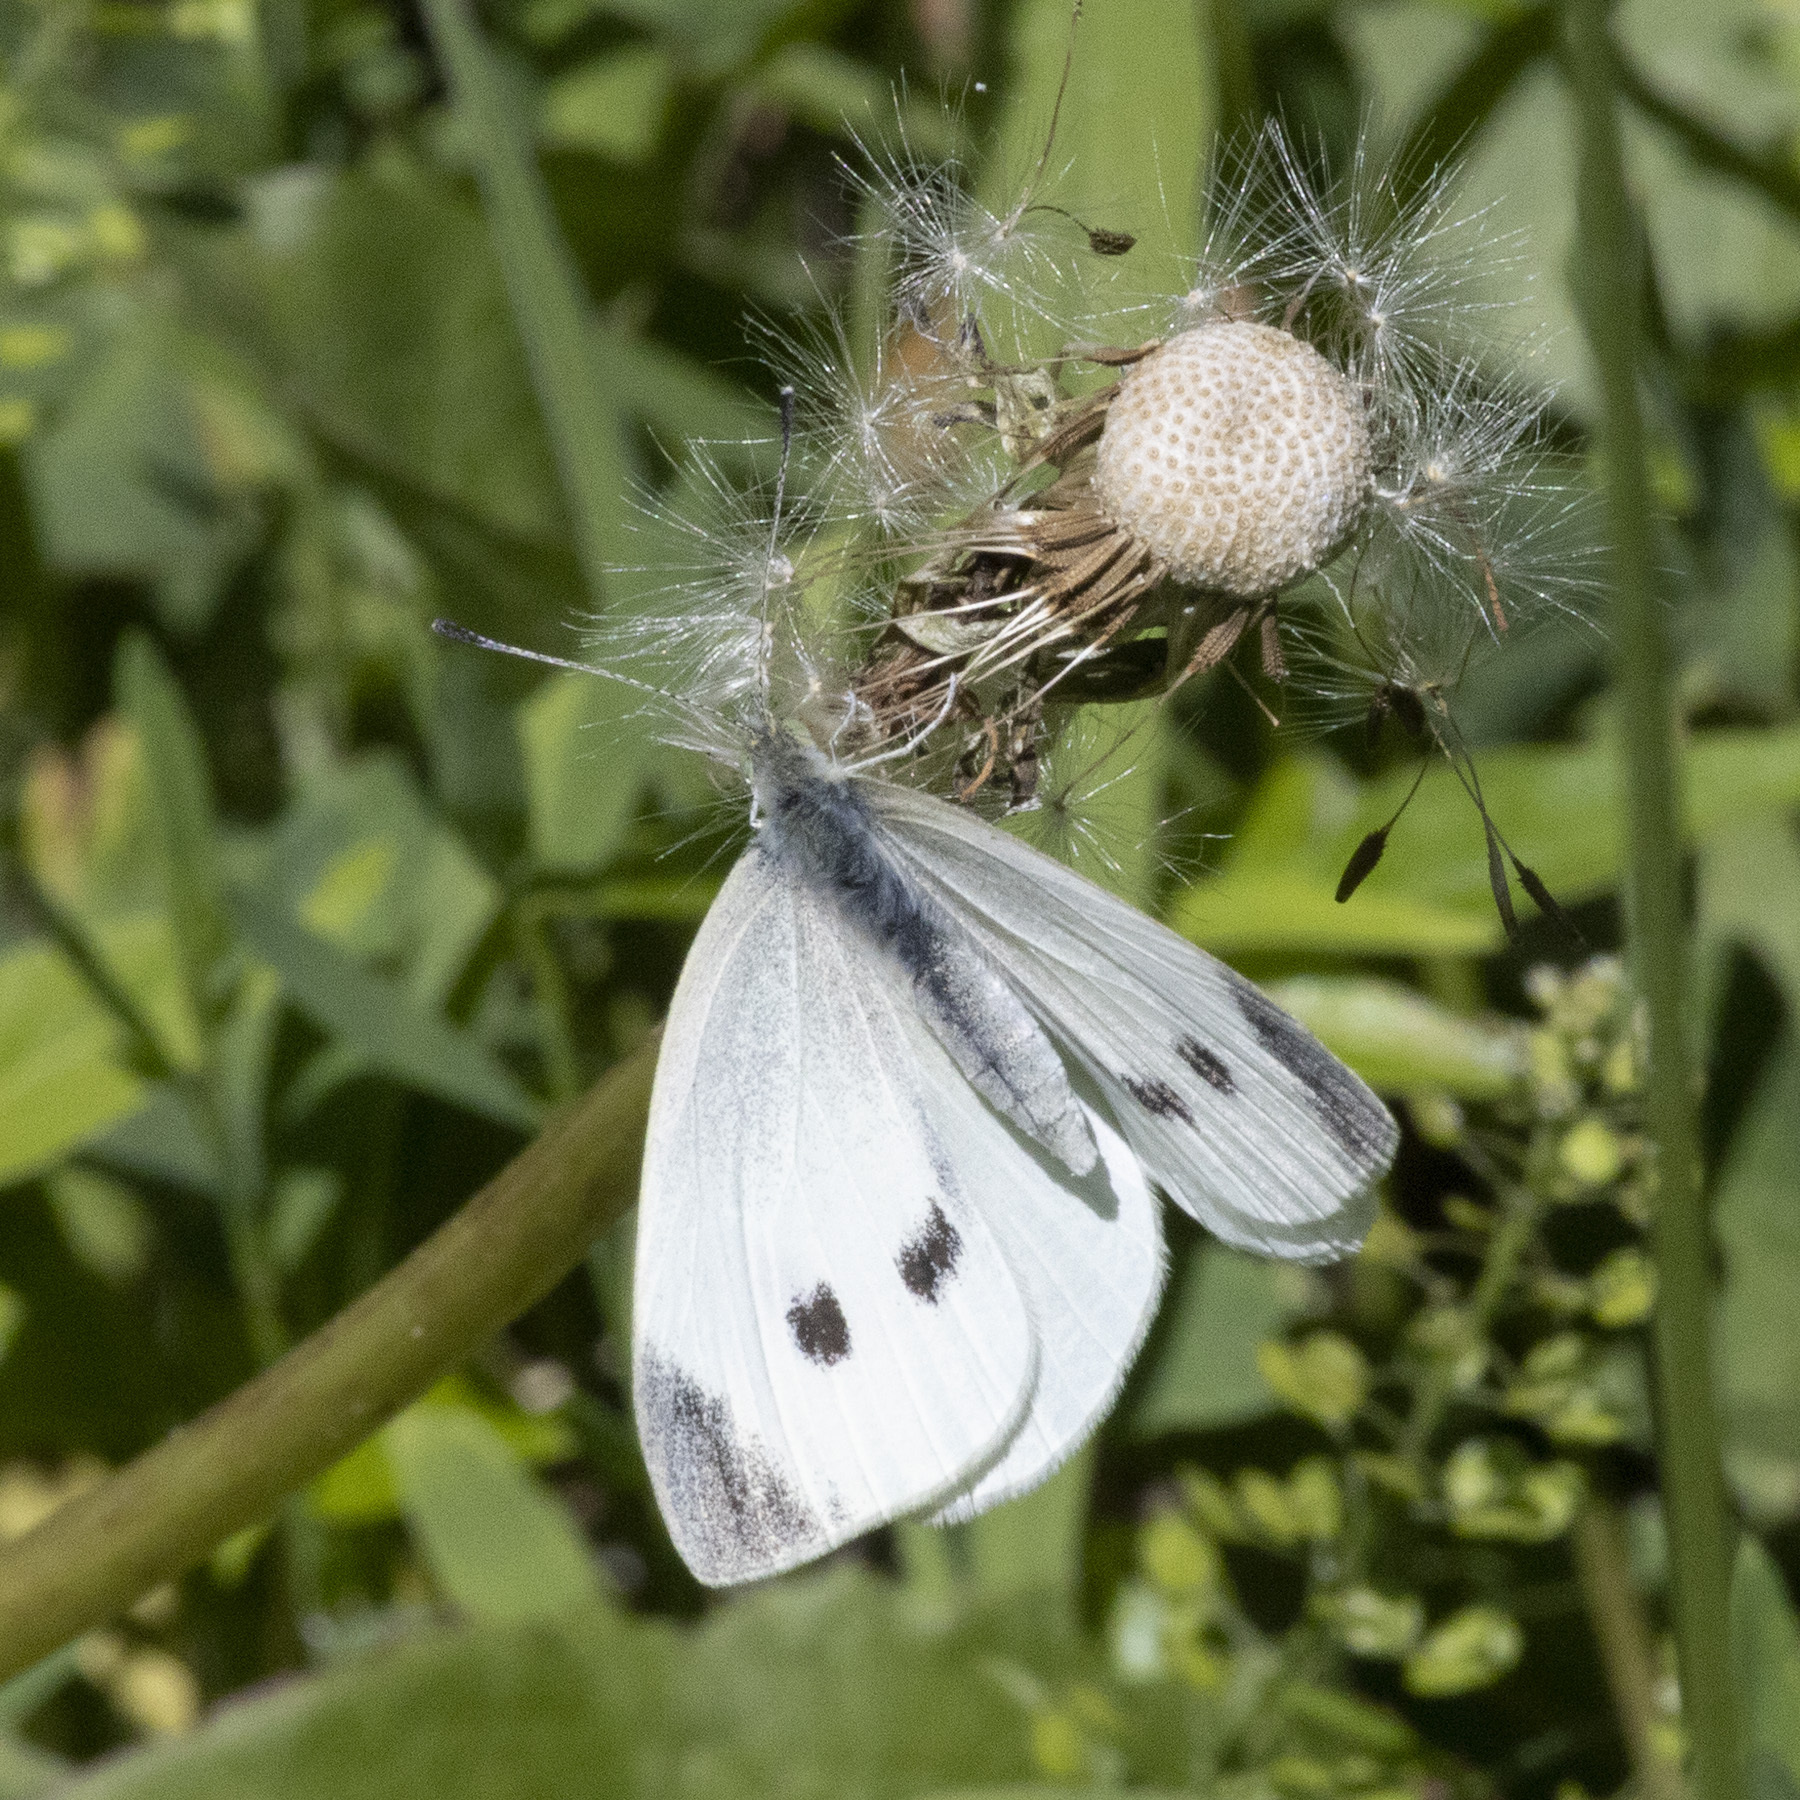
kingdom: Animalia
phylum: Arthropoda
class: Insecta
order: Lepidoptera
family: Pieridae
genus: Pieris
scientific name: Pieris rapae
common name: Small white
